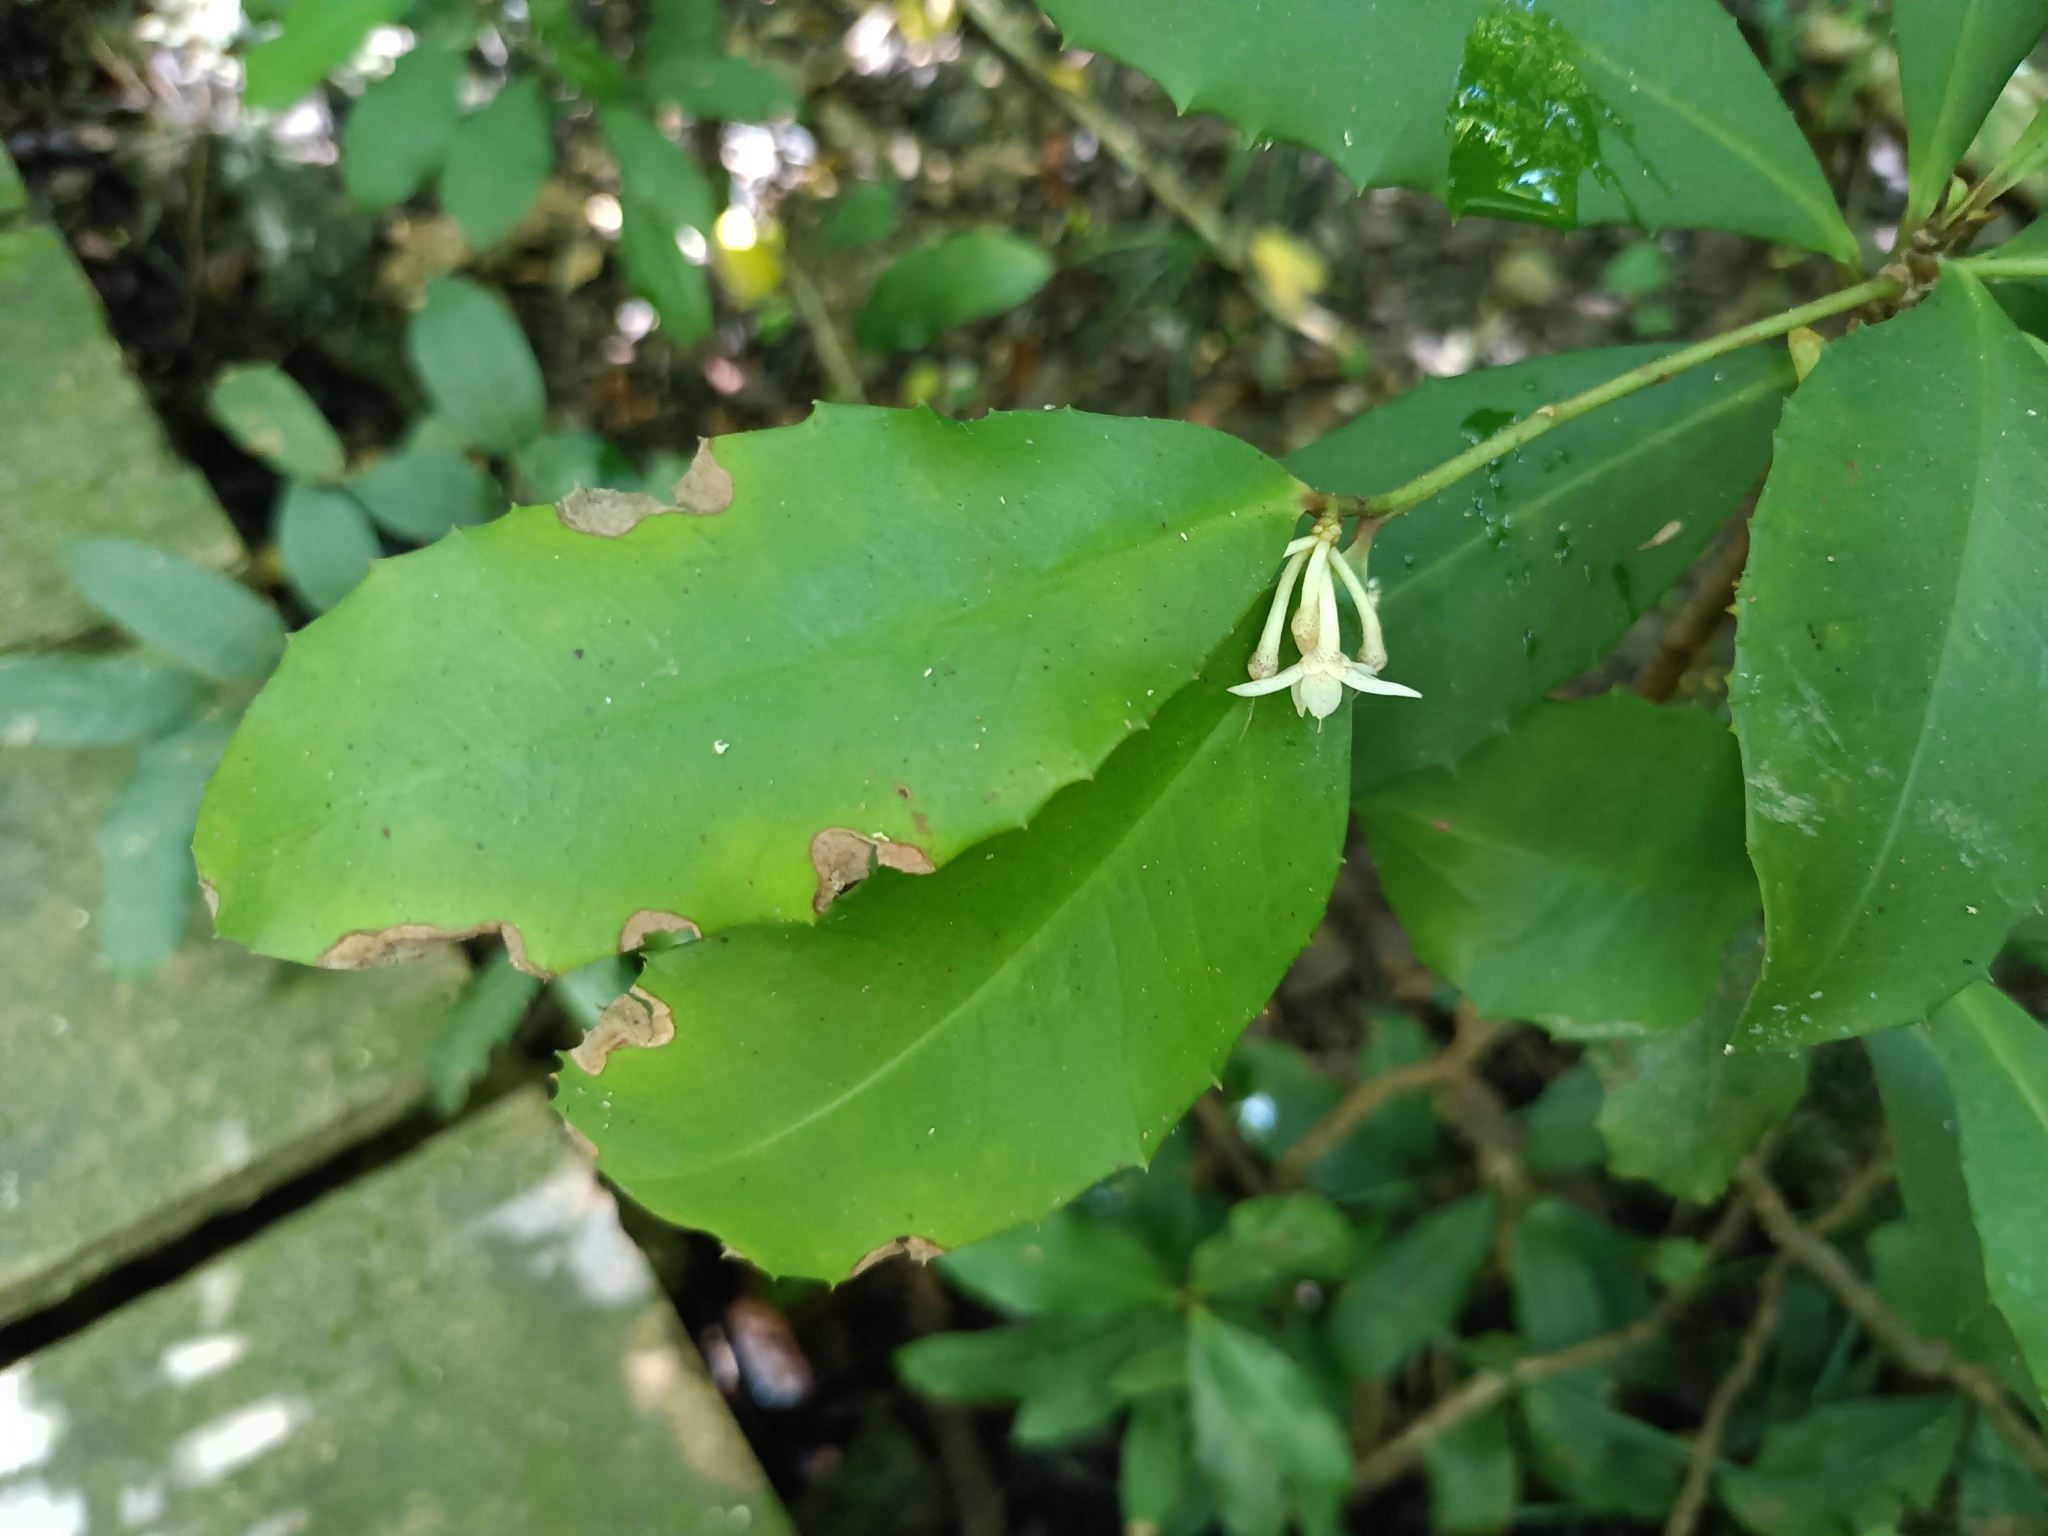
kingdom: Plantae
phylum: Tracheophyta
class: Magnoliopsida
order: Ericales
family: Primulaceae
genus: Ardisia
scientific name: Ardisia cornudentata
